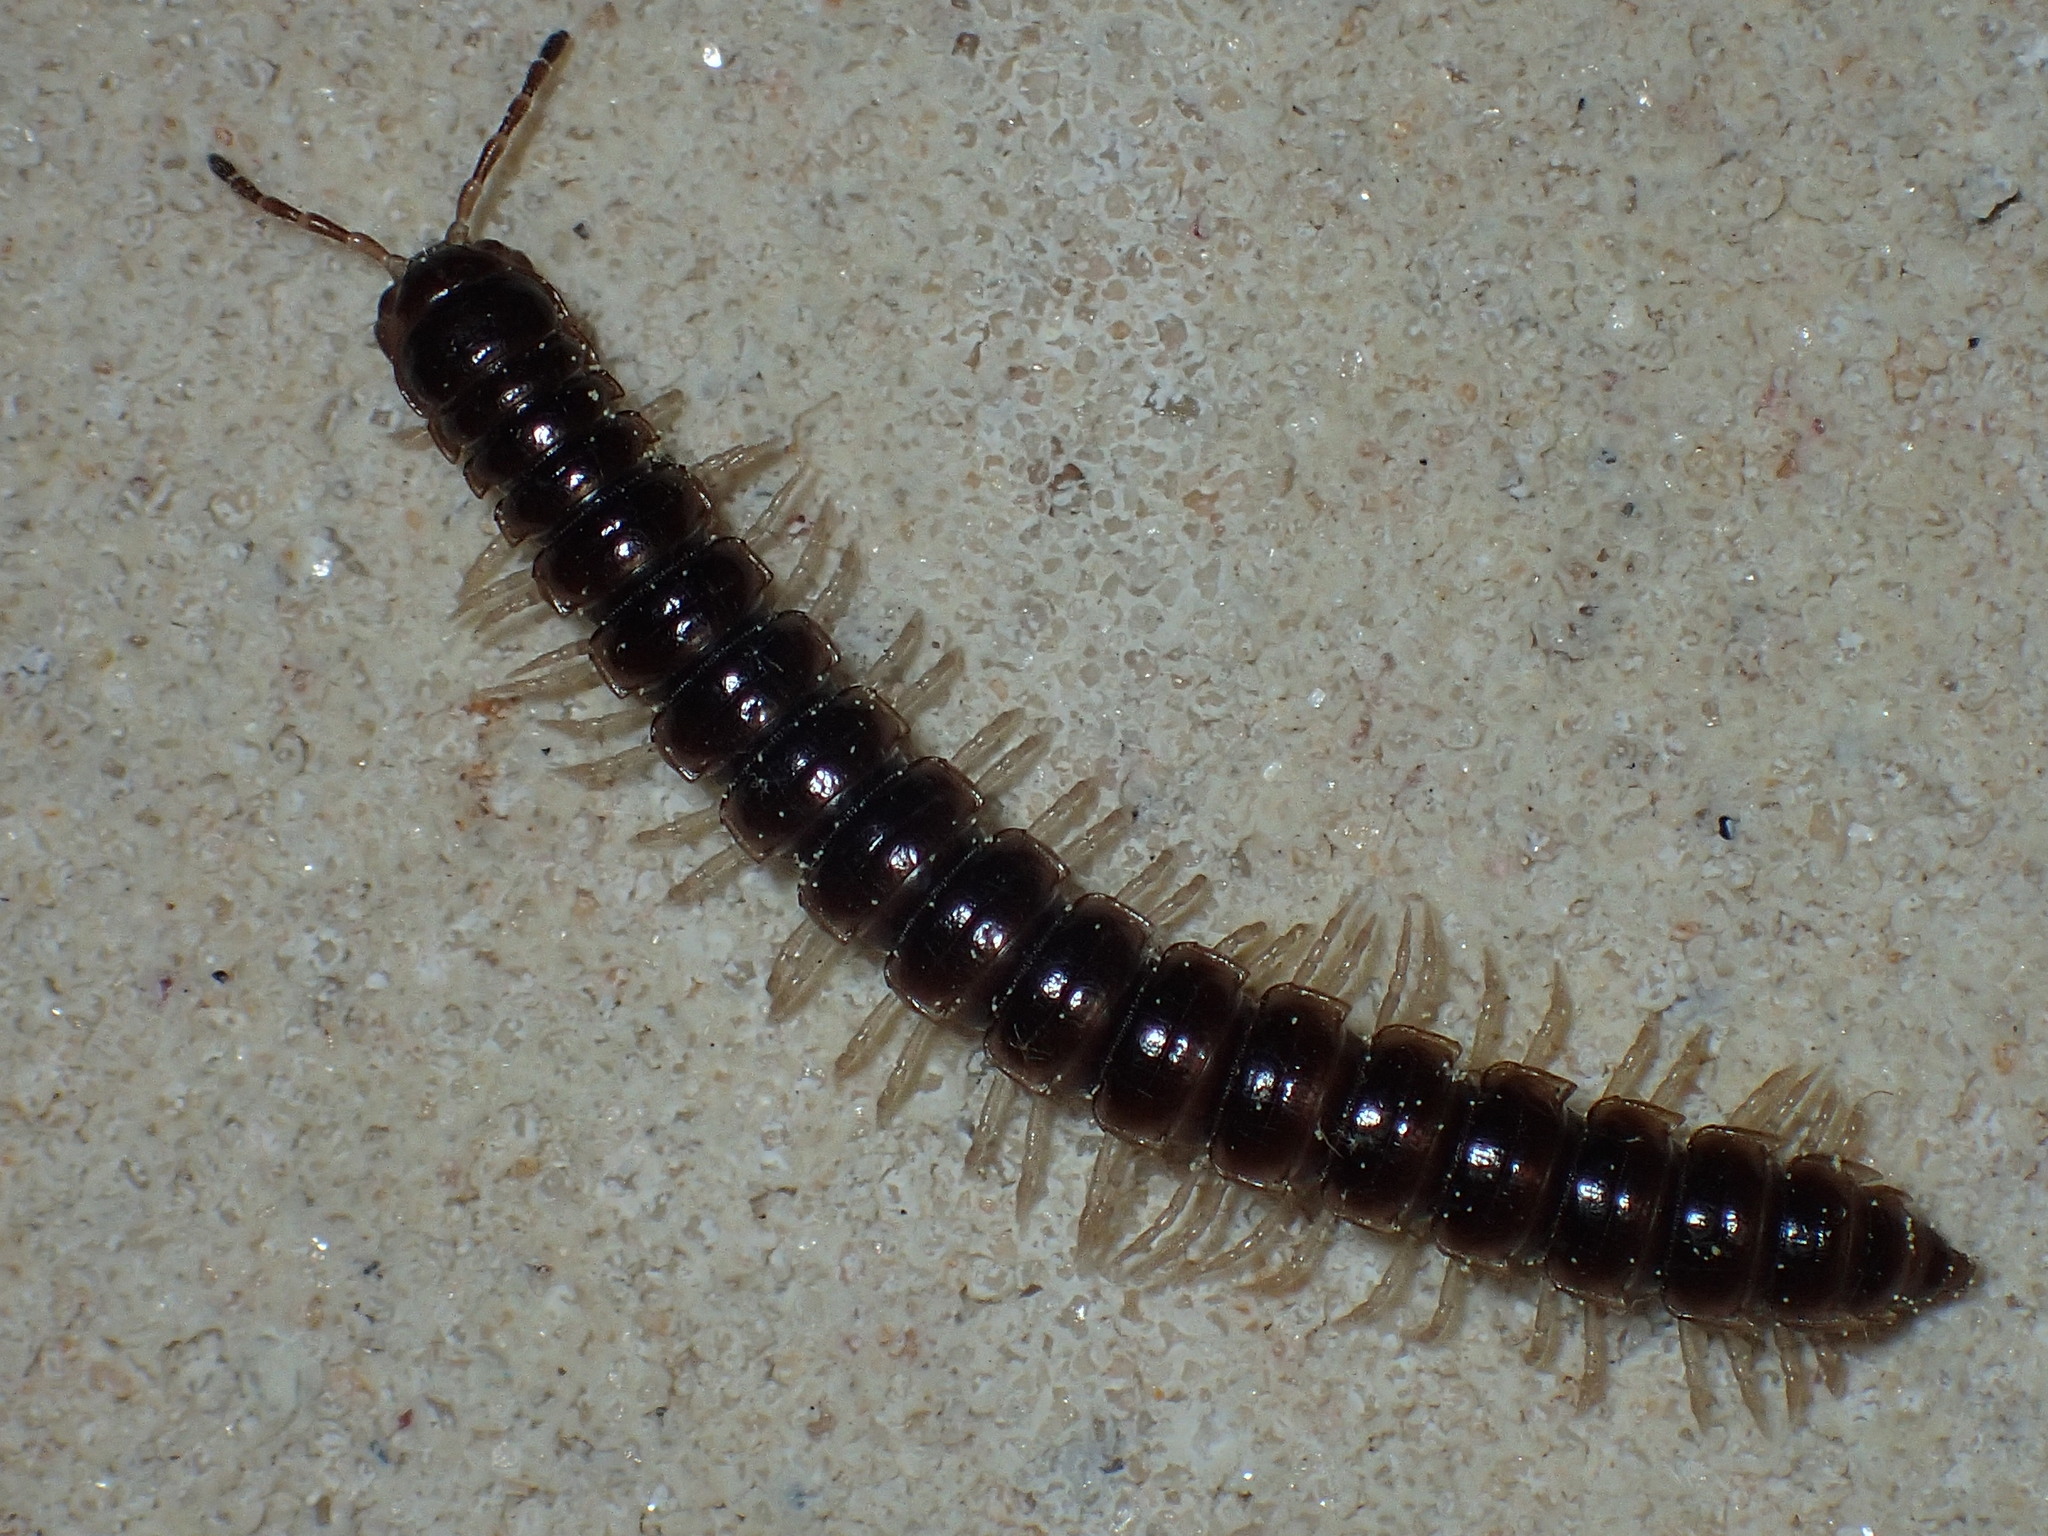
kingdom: Animalia
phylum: Arthropoda
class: Diplopoda
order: Polydesmida
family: Paradoxosomatidae
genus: Oxidus
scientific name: Oxidus gracilis
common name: Greenhouse millipede
